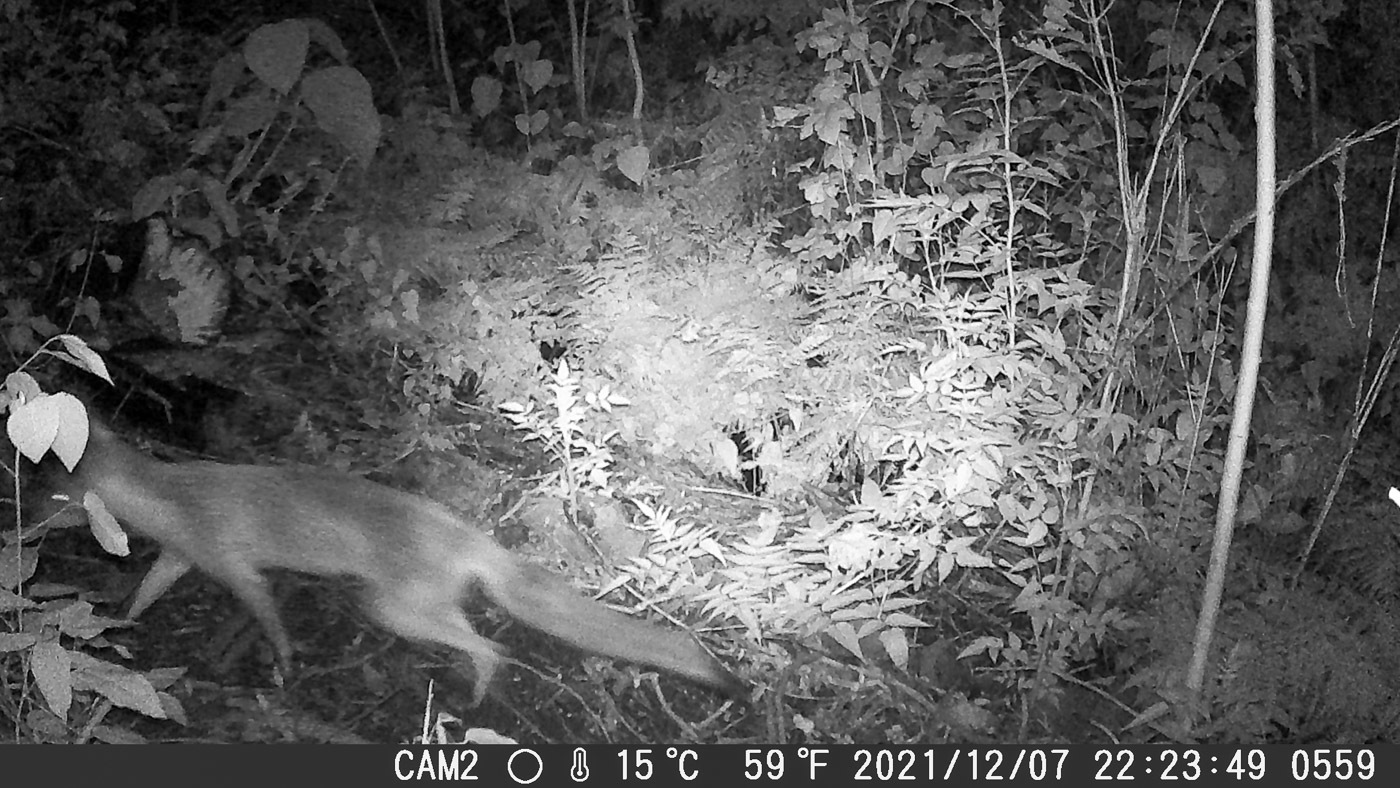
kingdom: Animalia
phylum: Chordata
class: Mammalia
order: Carnivora
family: Canidae
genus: Vulpes
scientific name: Vulpes vulpes
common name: Red fox
